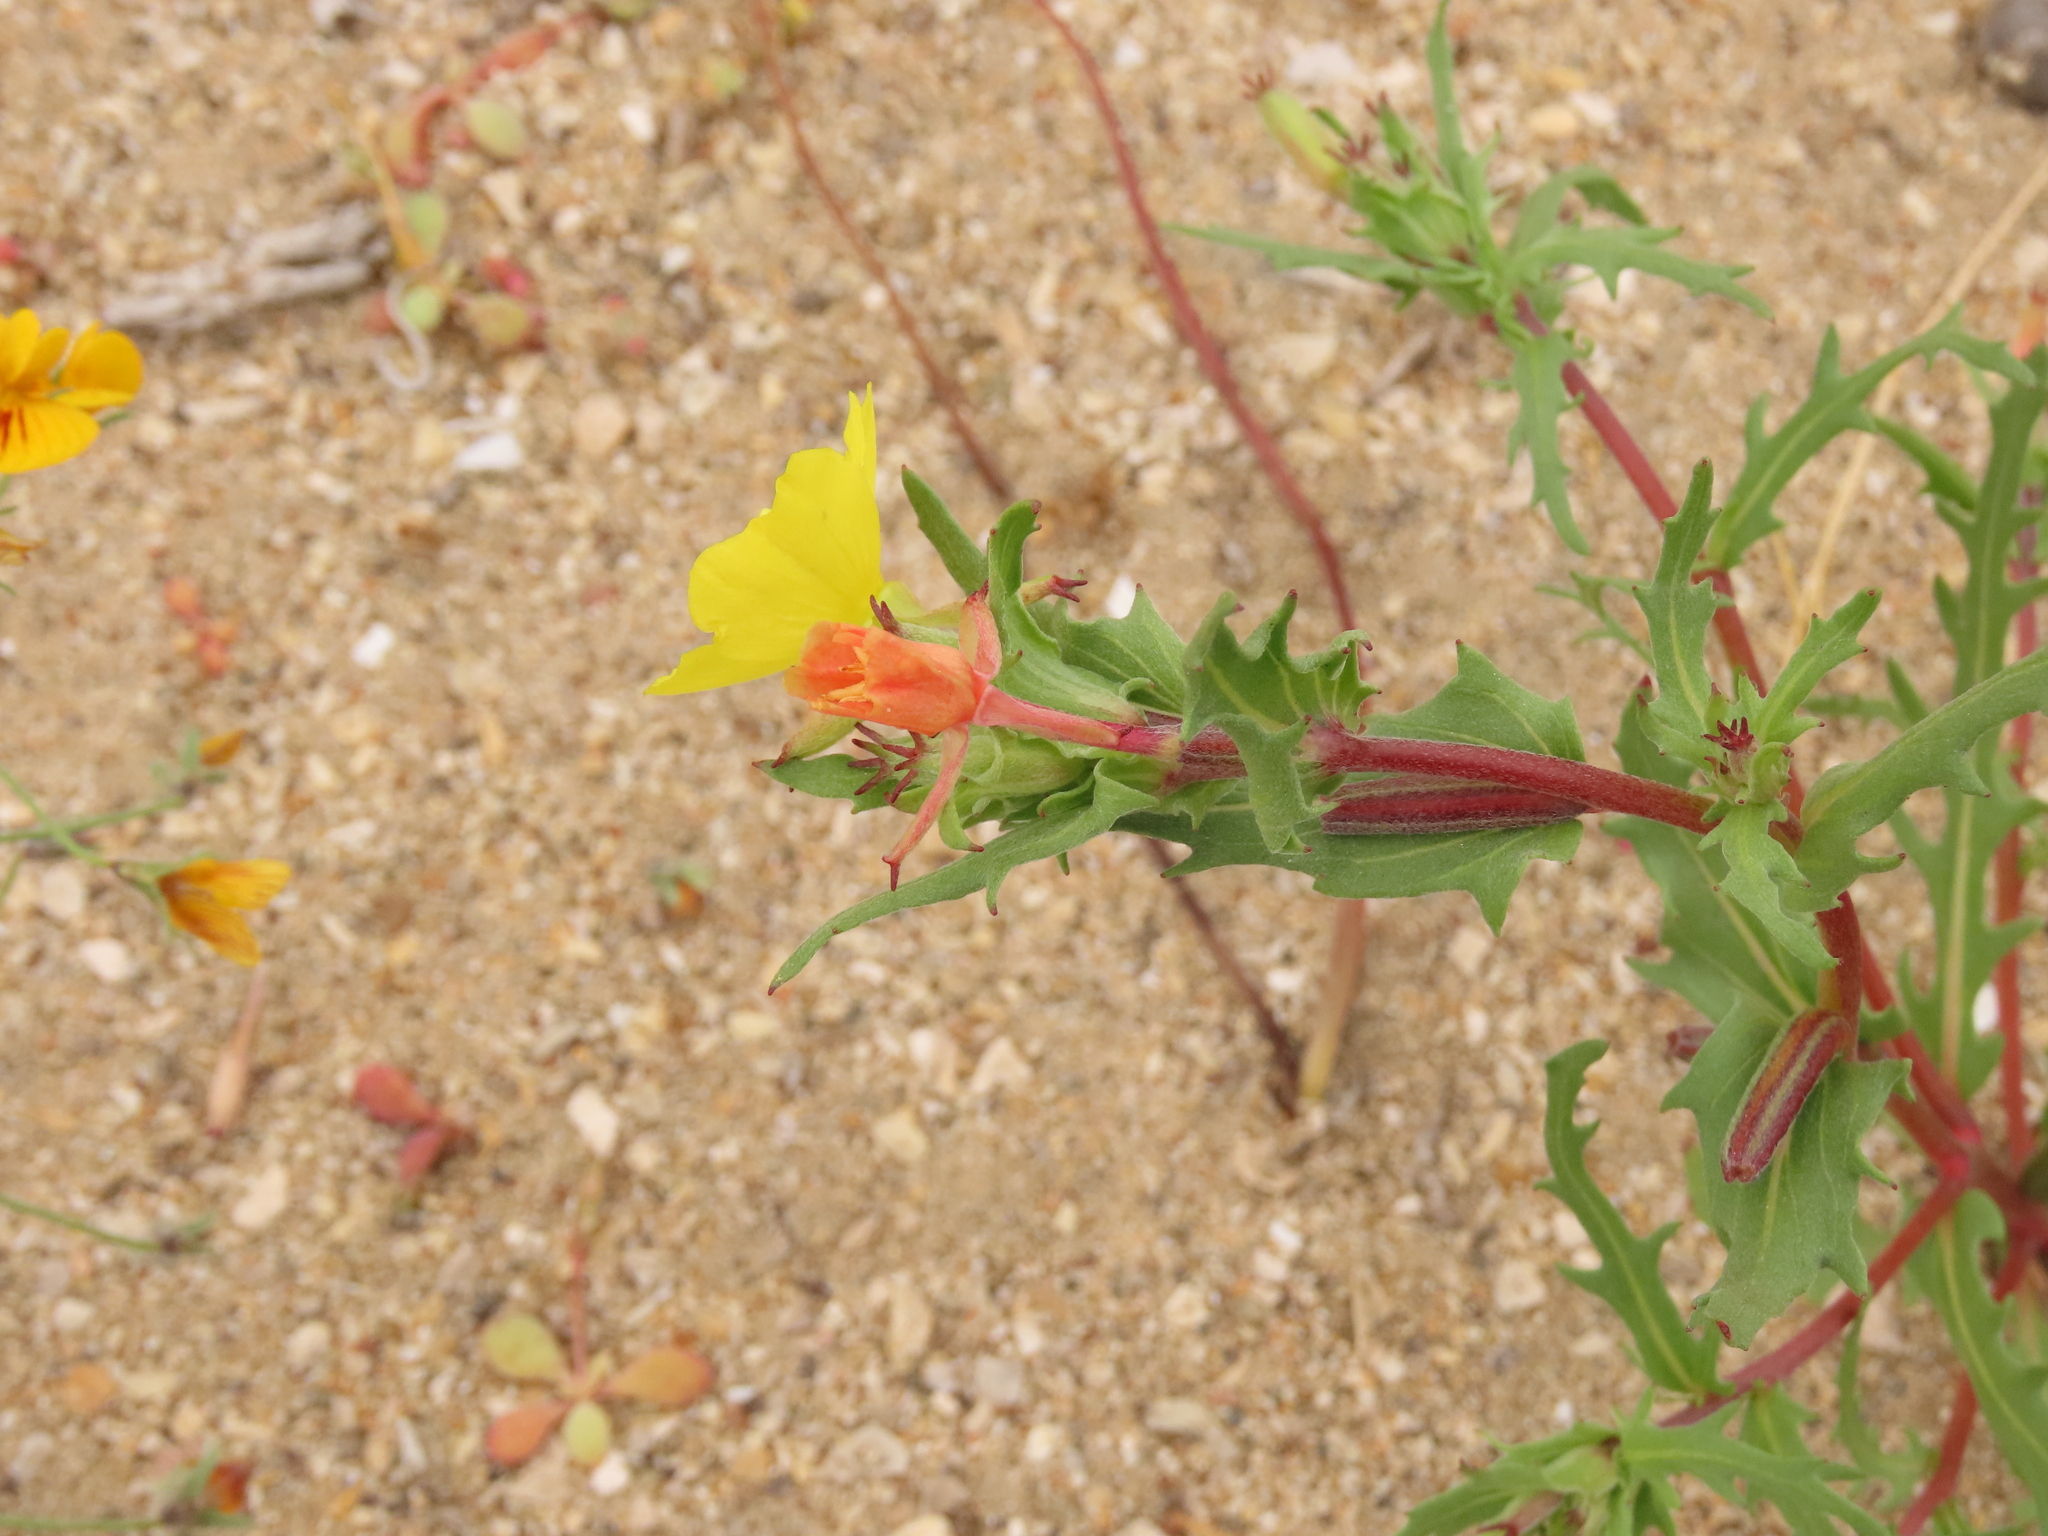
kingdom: Plantae
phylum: Tracheophyta
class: Magnoliopsida
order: Myrtales
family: Onagraceae
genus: Oenothera
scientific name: Oenothera coquimbensis
